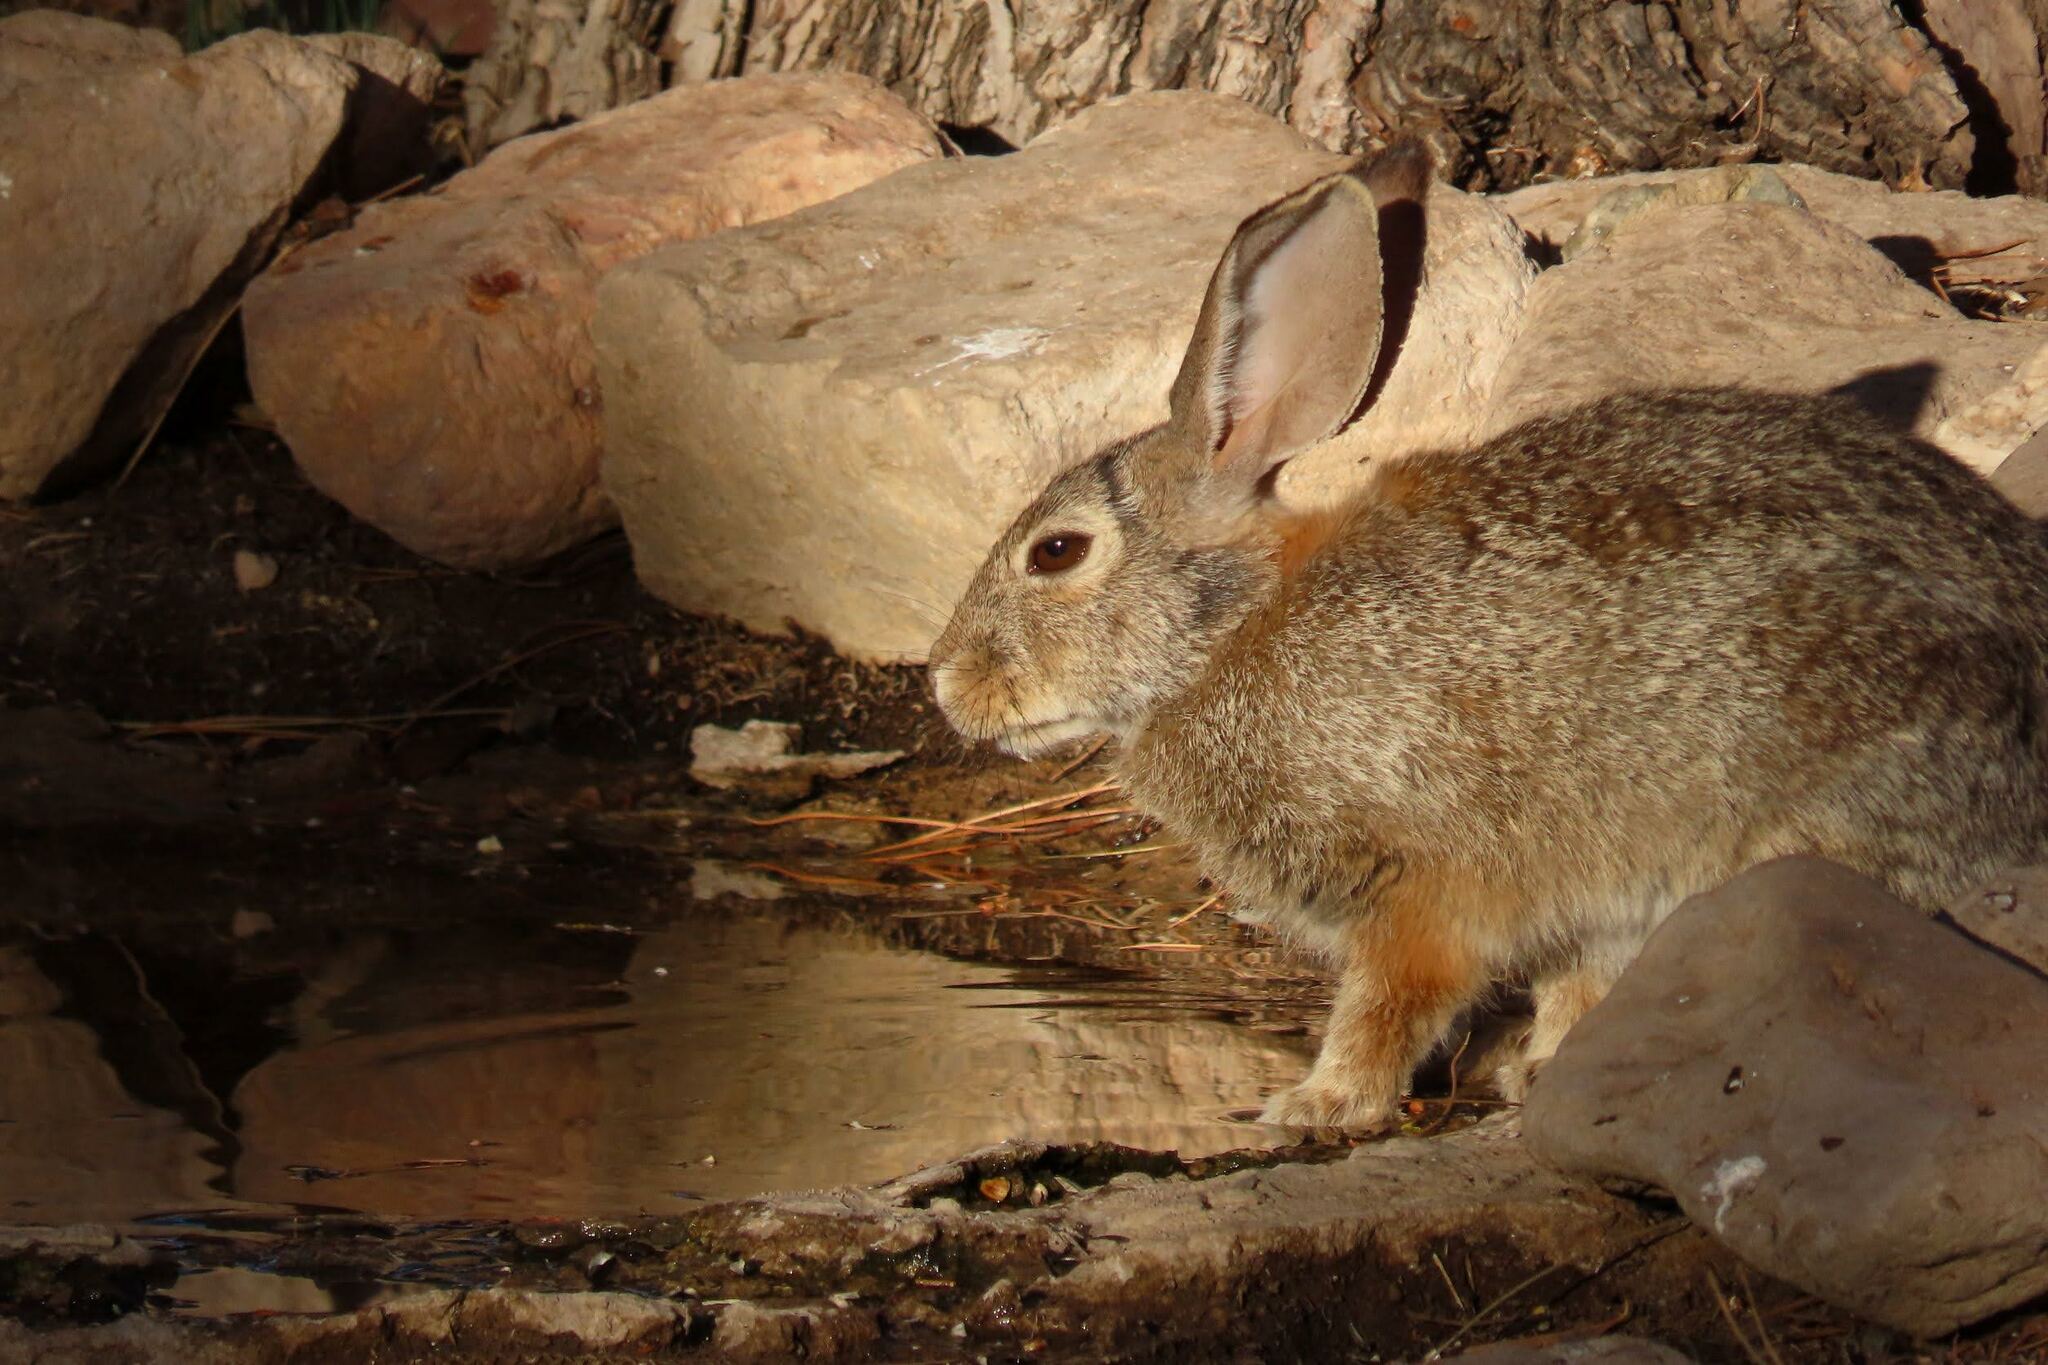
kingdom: Animalia
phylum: Chordata
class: Mammalia
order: Lagomorpha
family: Leporidae
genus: Sylvilagus
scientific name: Sylvilagus audubonii
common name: Desert cottontail
